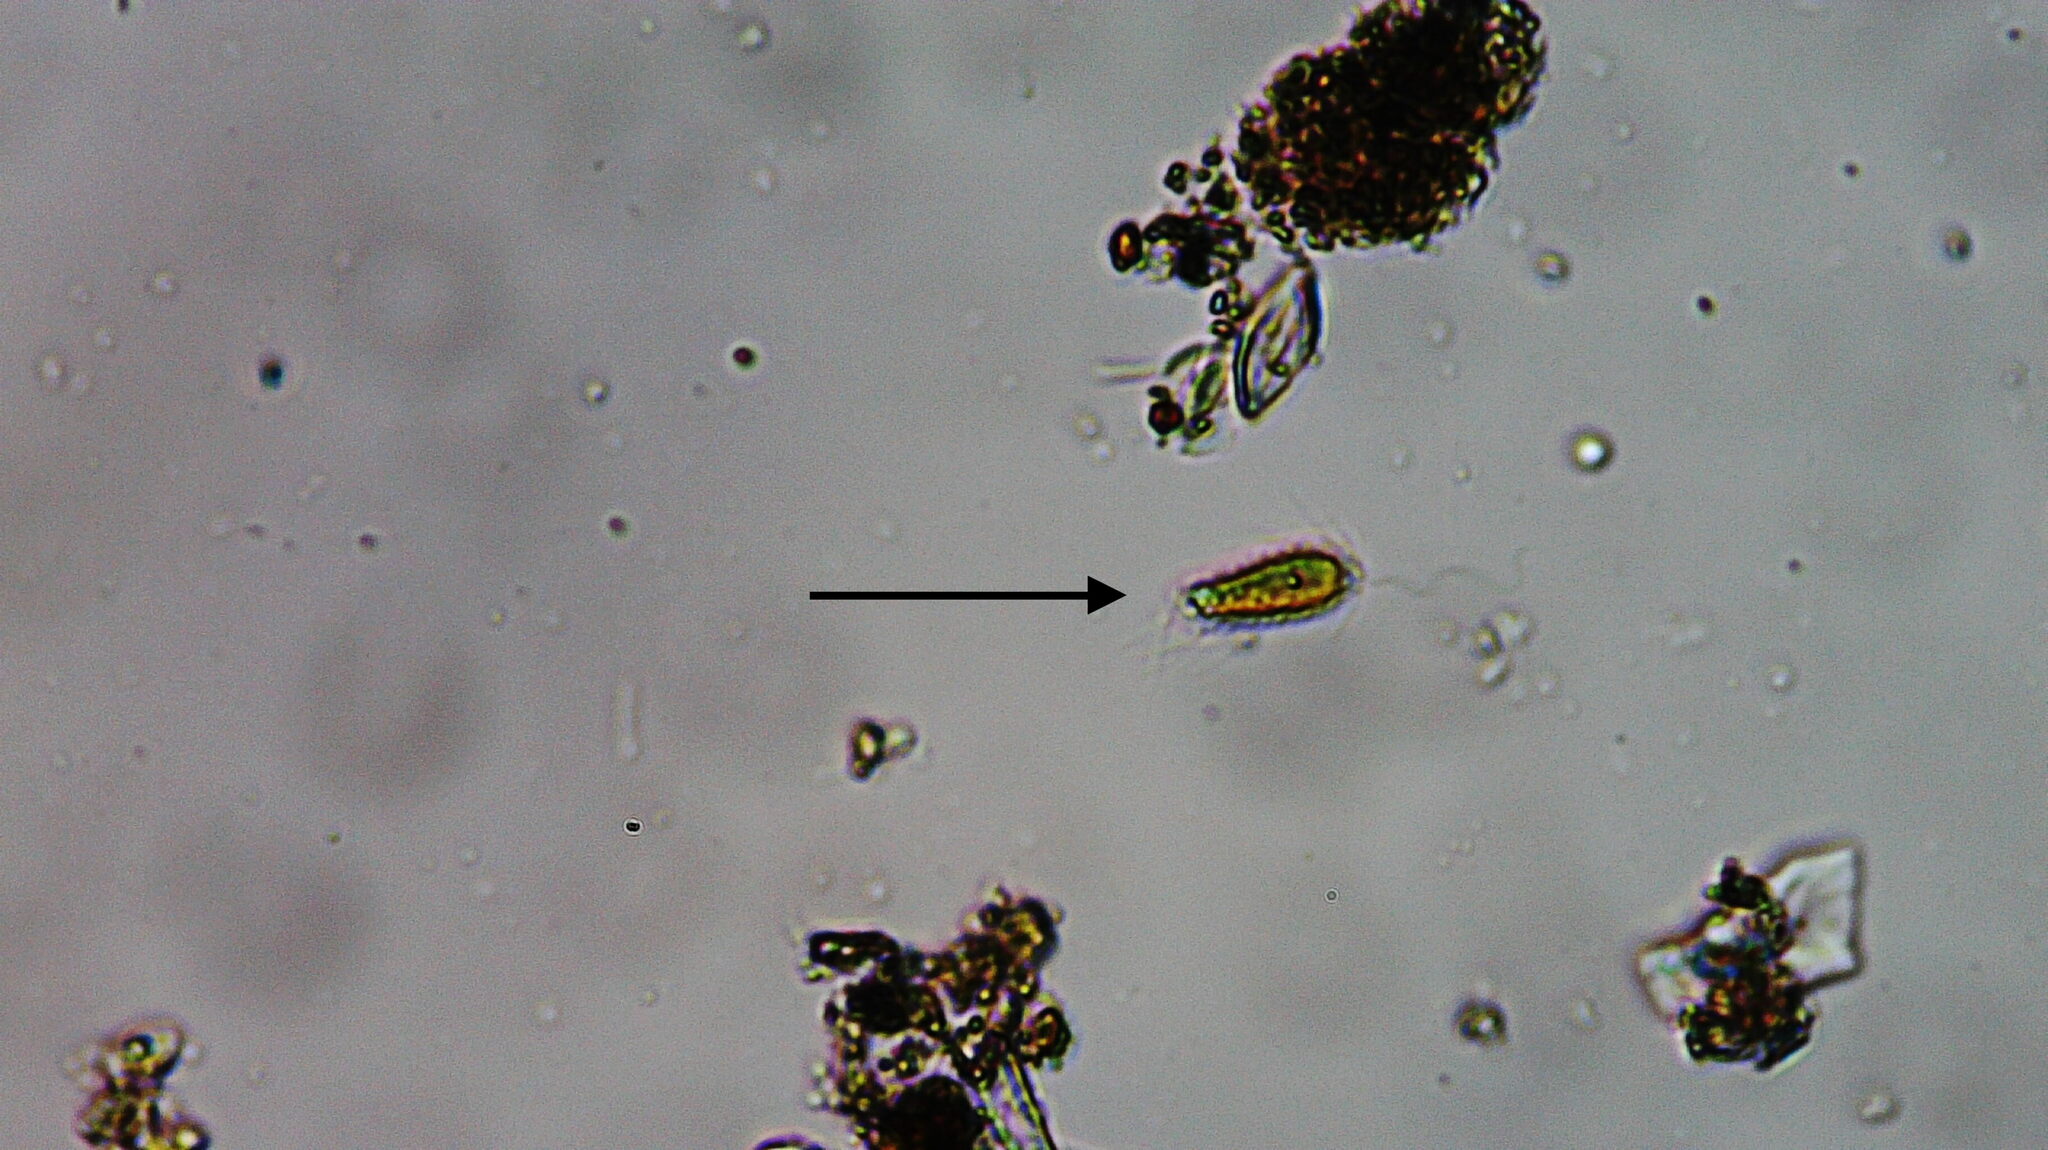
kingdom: Chromista
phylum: Ochrophyta
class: Chrysophyceae
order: Synurales
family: Mallomonadaceae
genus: Mallomonas
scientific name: Mallomonas
